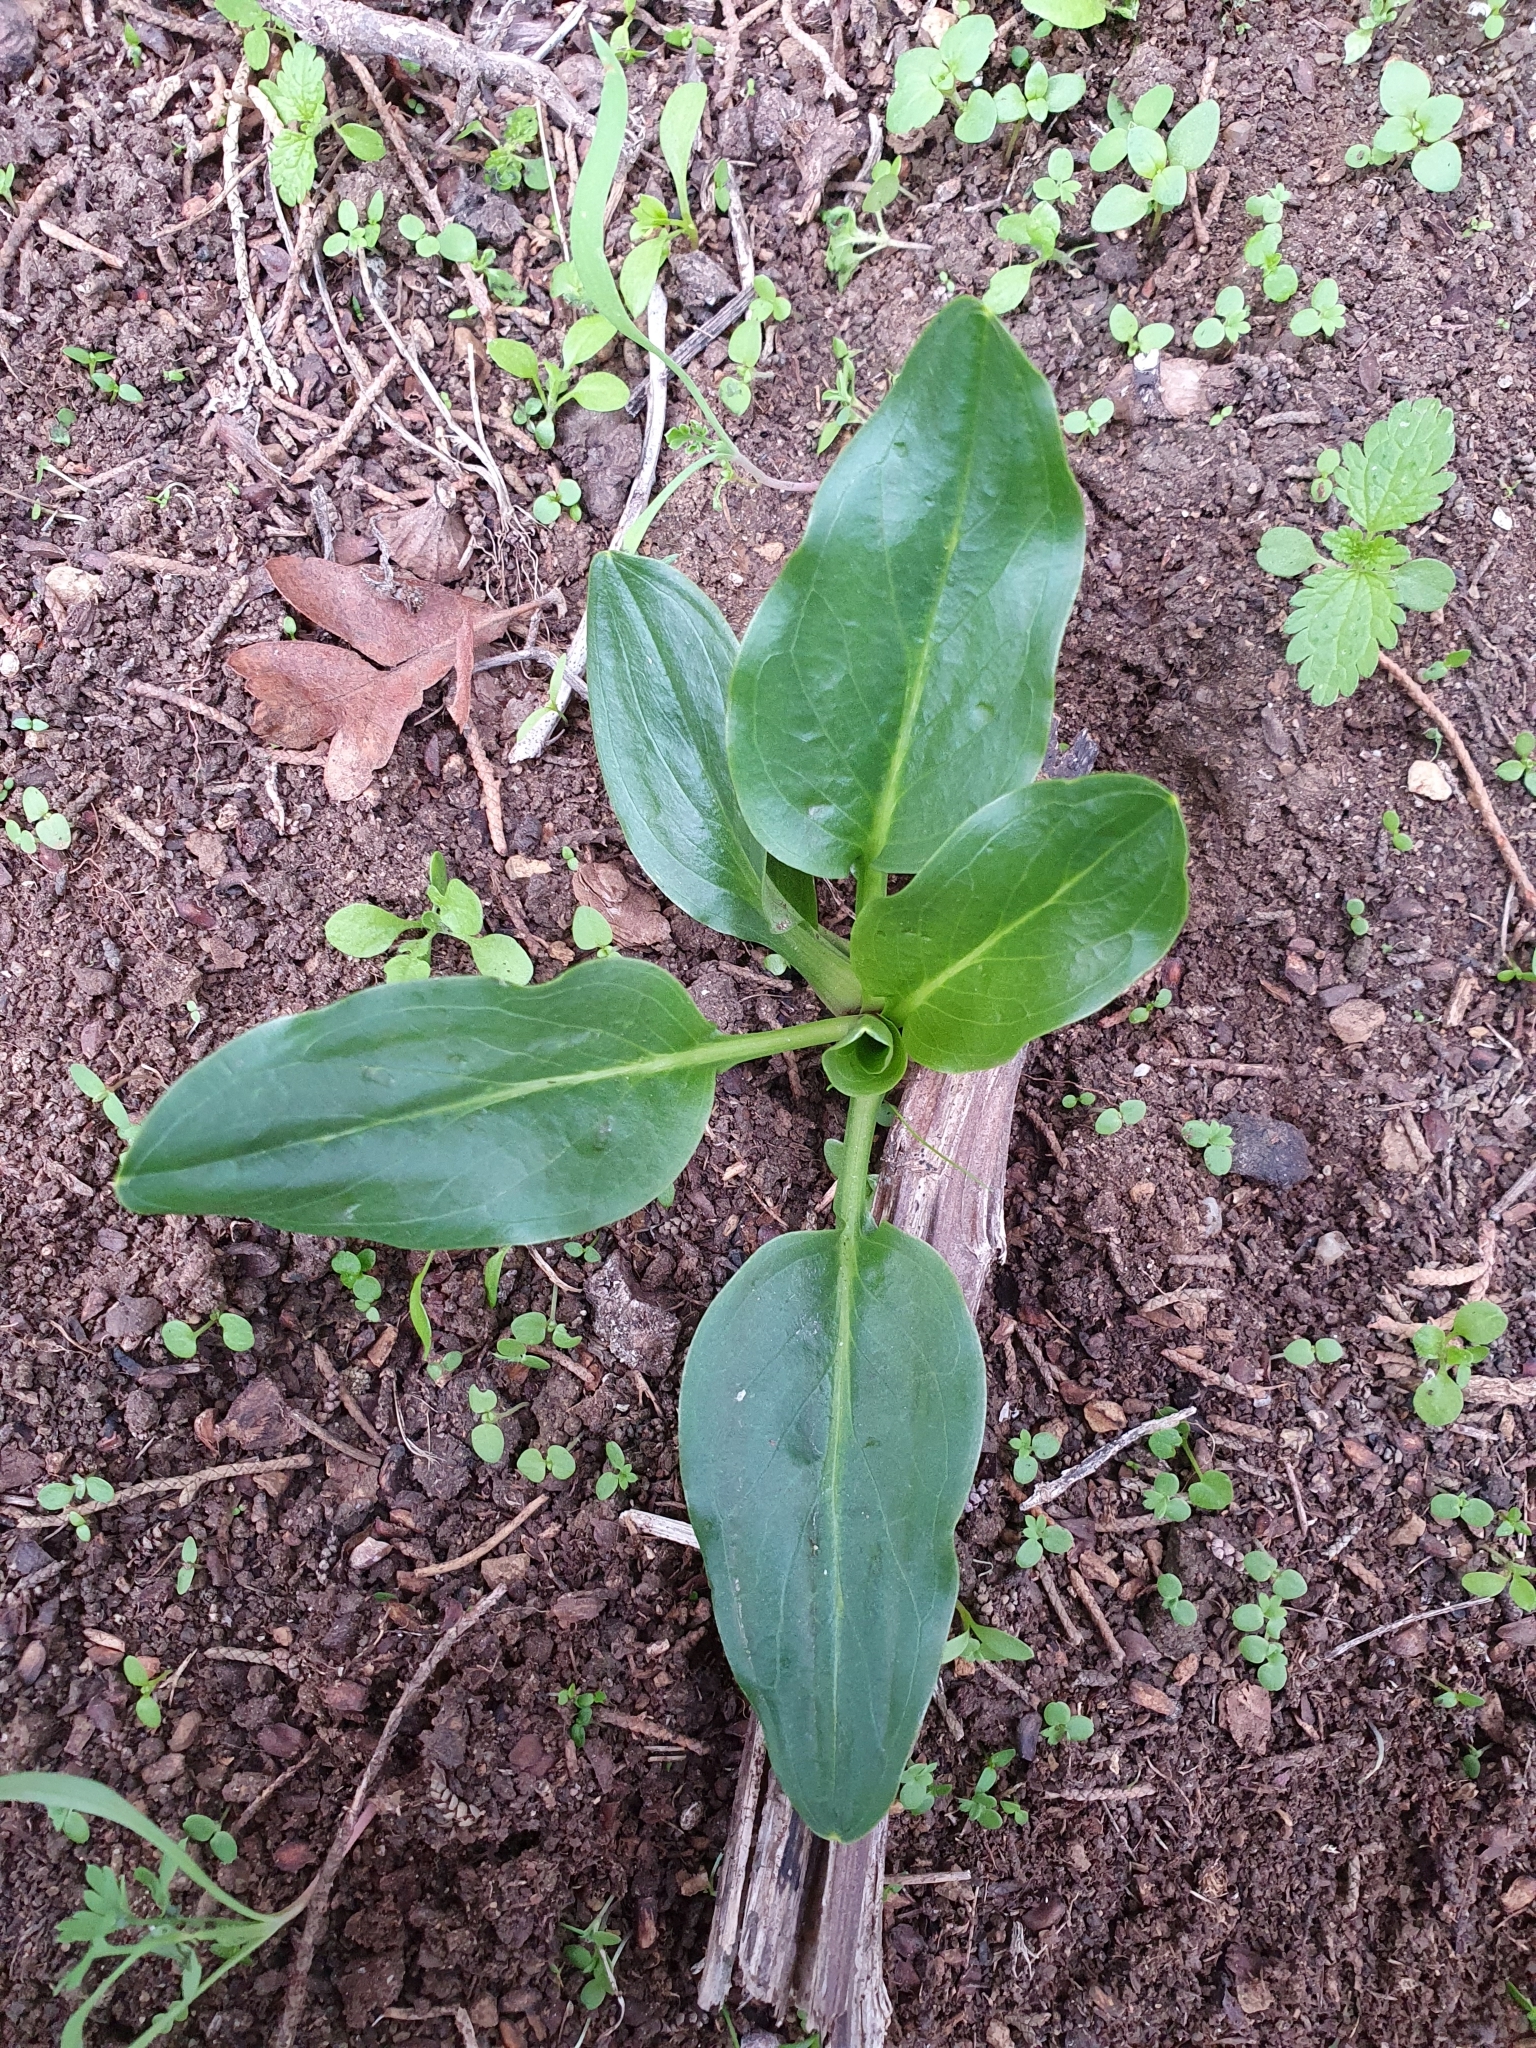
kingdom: Plantae
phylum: Tracheophyta
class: Liliopsida
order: Alismatales
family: Araceae
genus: Biarum
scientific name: Biarum dispar
